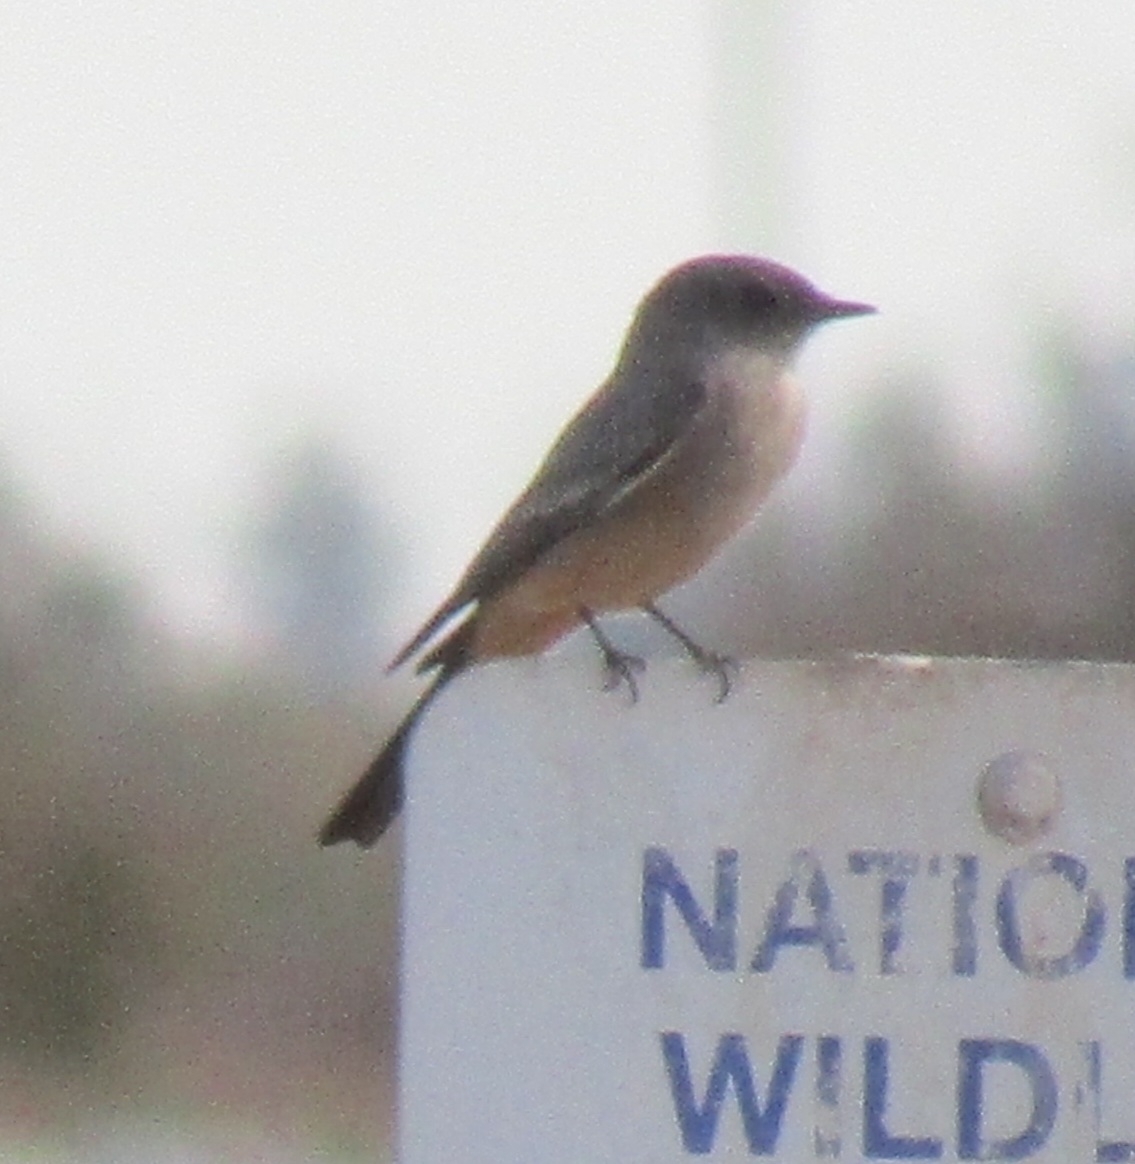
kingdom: Animalia
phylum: Chordata
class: Aves
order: Passeriformes
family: Tyrannidae
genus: Sayornis
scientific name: Sayornis saya
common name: Say's phoebe
